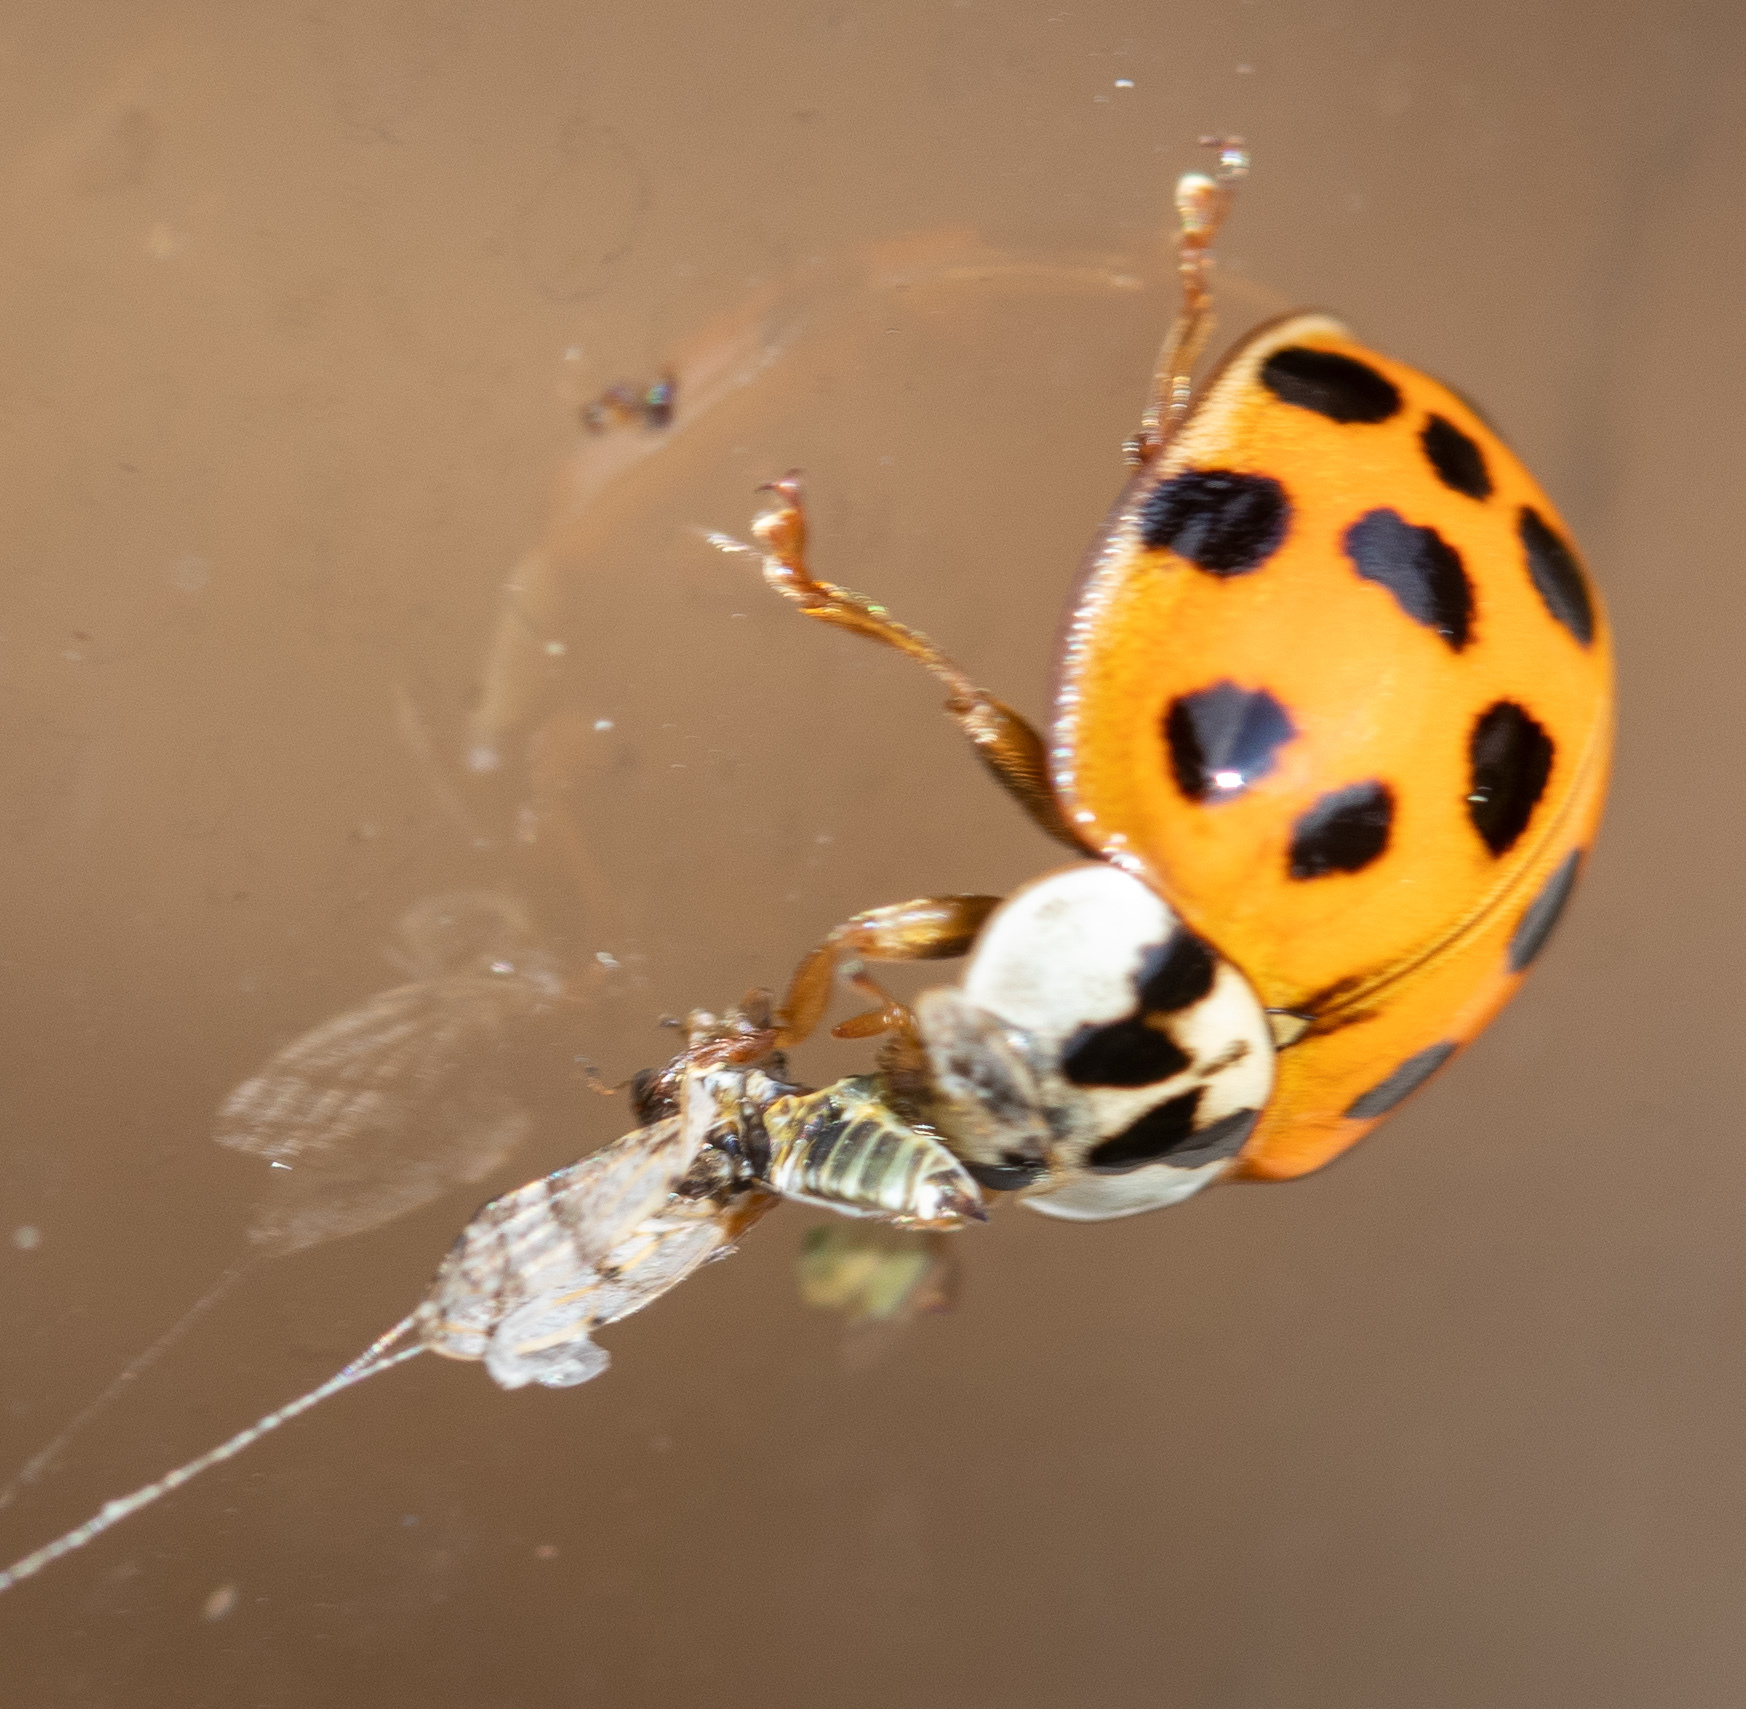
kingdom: Animalia
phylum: Arthropoda
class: Insecta
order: Coleoptera
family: Coccinellidae
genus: Harmonia
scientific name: Harmonia axyridis
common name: Harlequin ladybird
